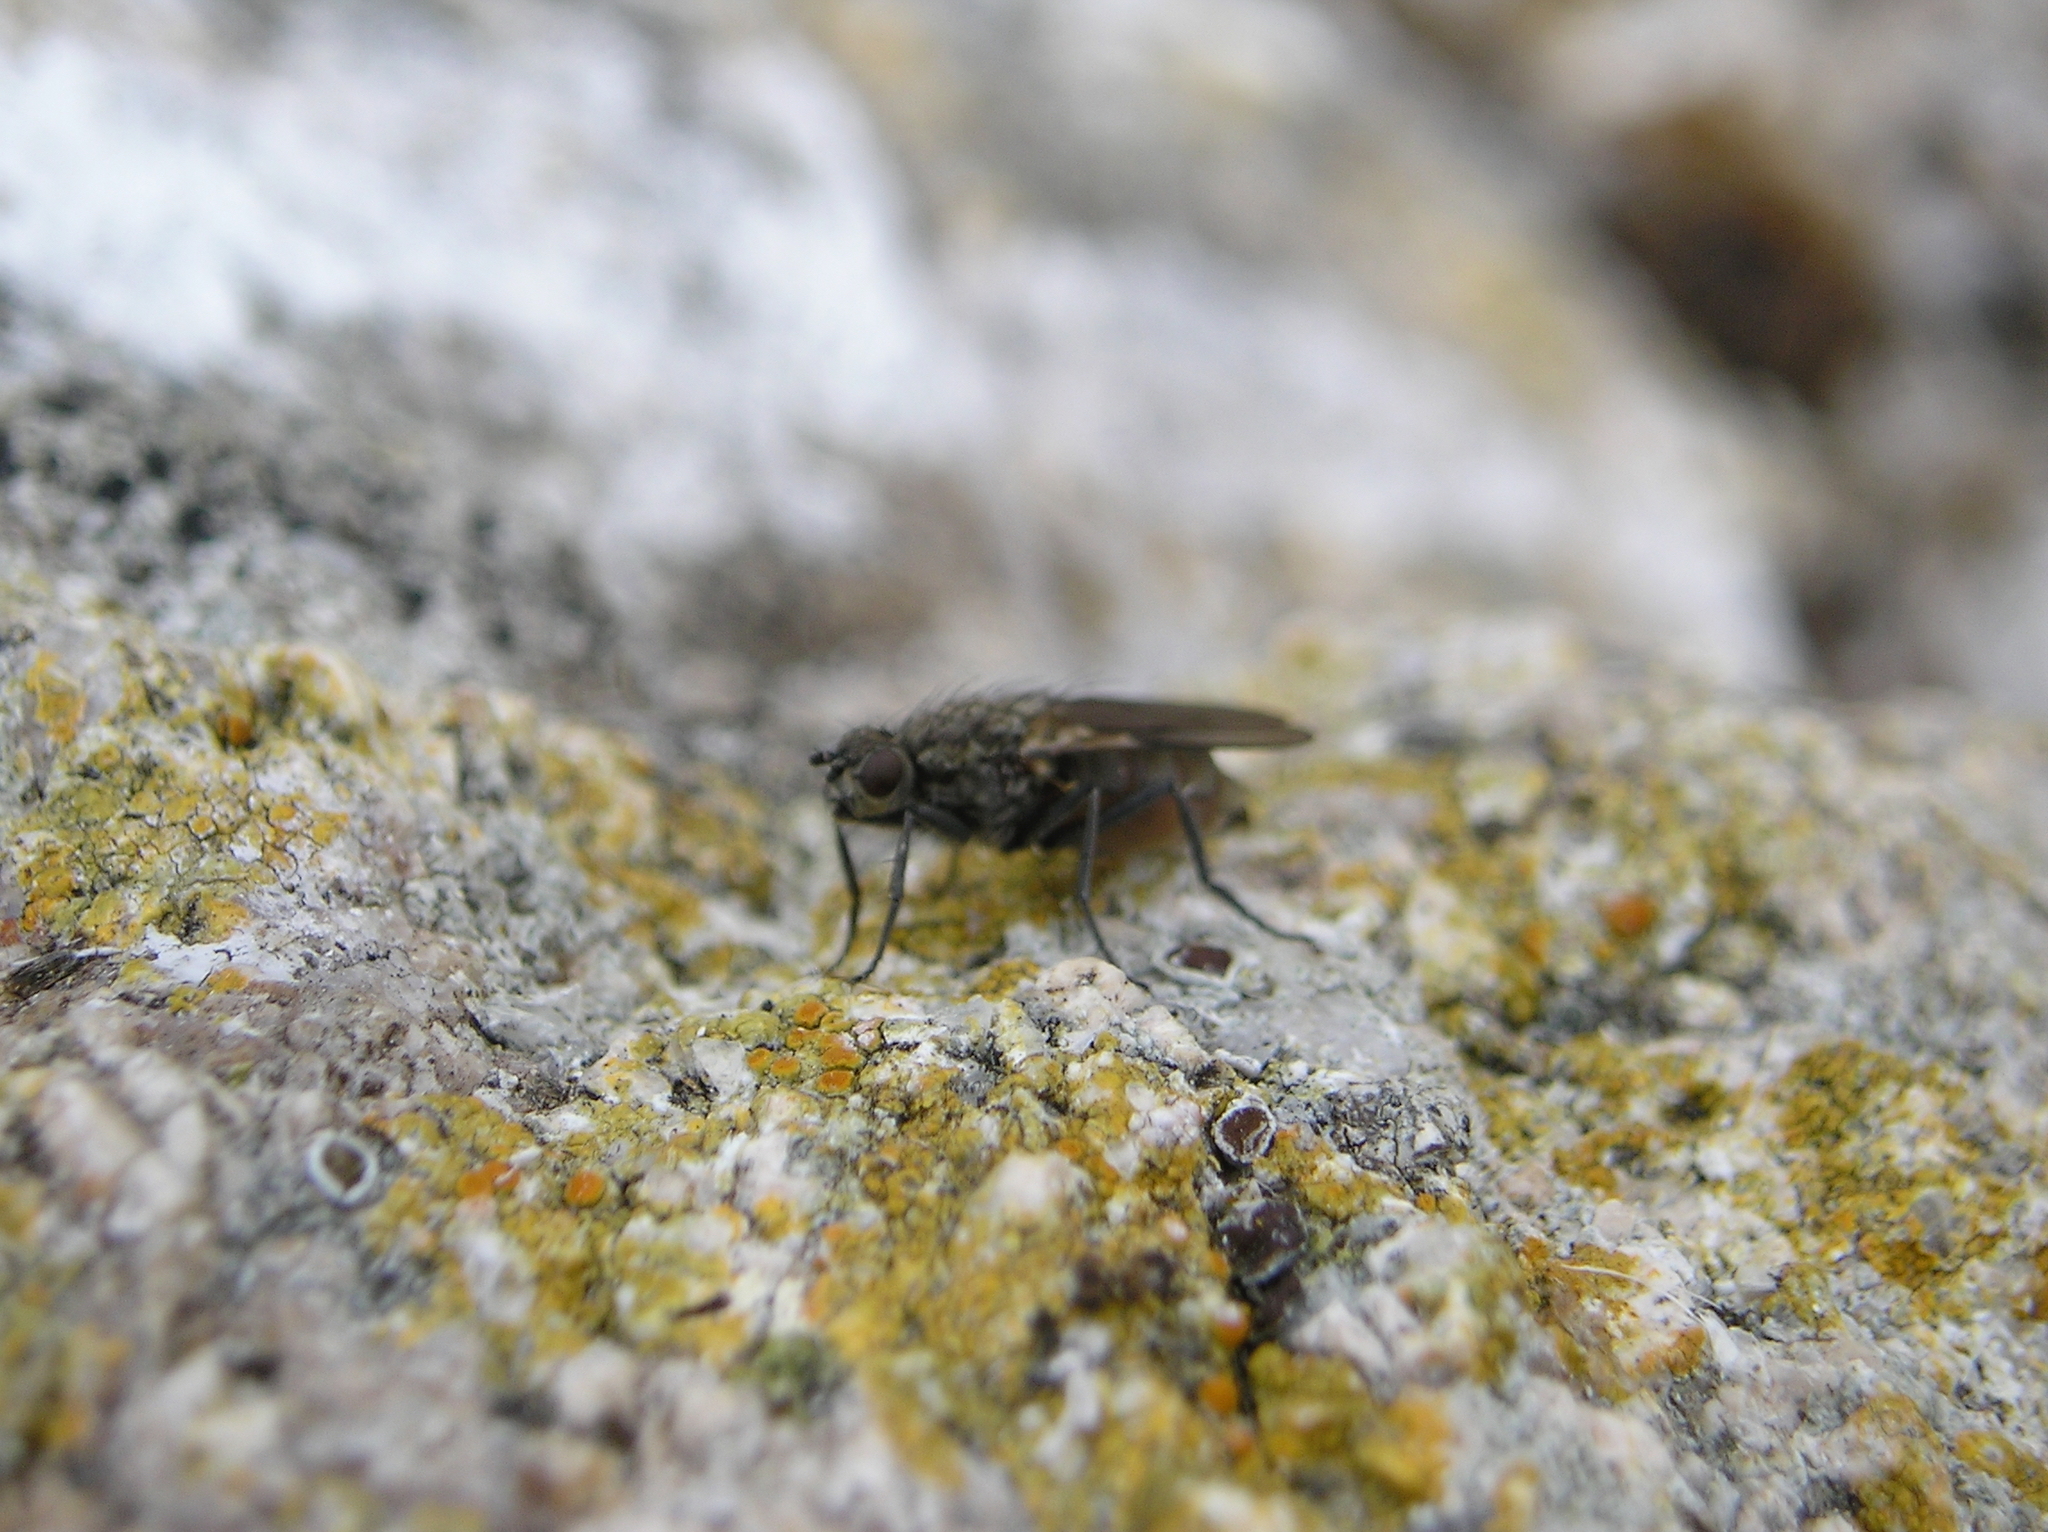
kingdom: Animalia
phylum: Arthropoda
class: Insecta
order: Diptera
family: Anthomyiidae
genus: Fucellia
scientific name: Fucellia thinobia
